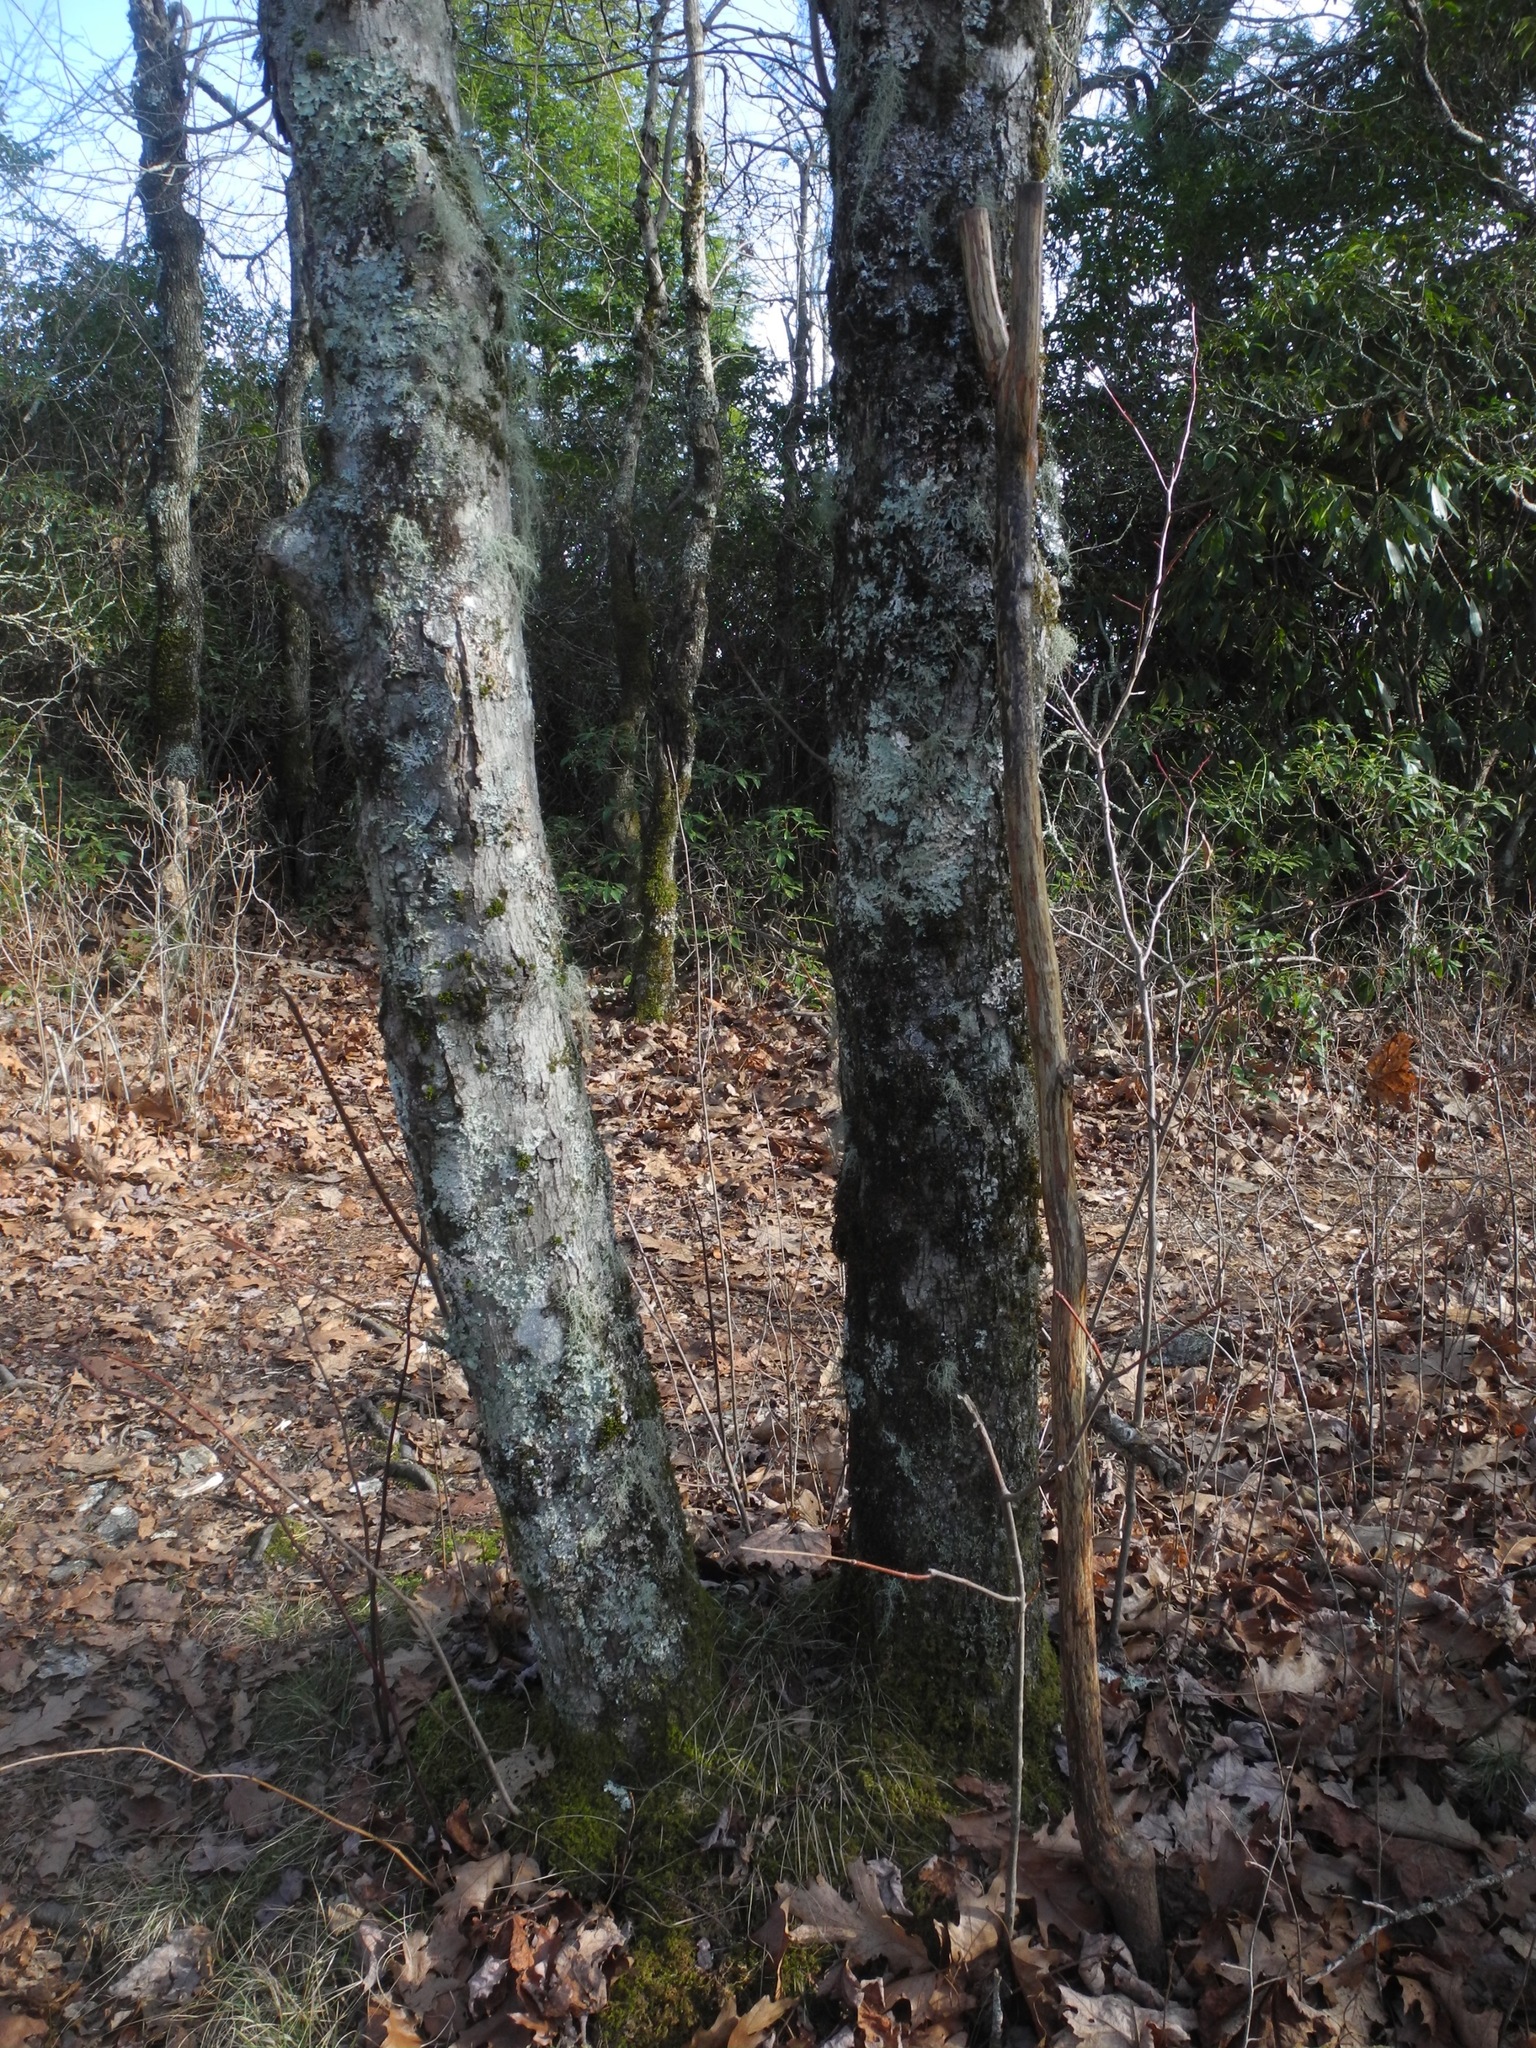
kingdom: Plantae
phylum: Tracheophyta
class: Magnoliopsida
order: Sapindales
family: Sapindaceae
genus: Acer
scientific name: Acer freemanii
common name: Freeman maple
